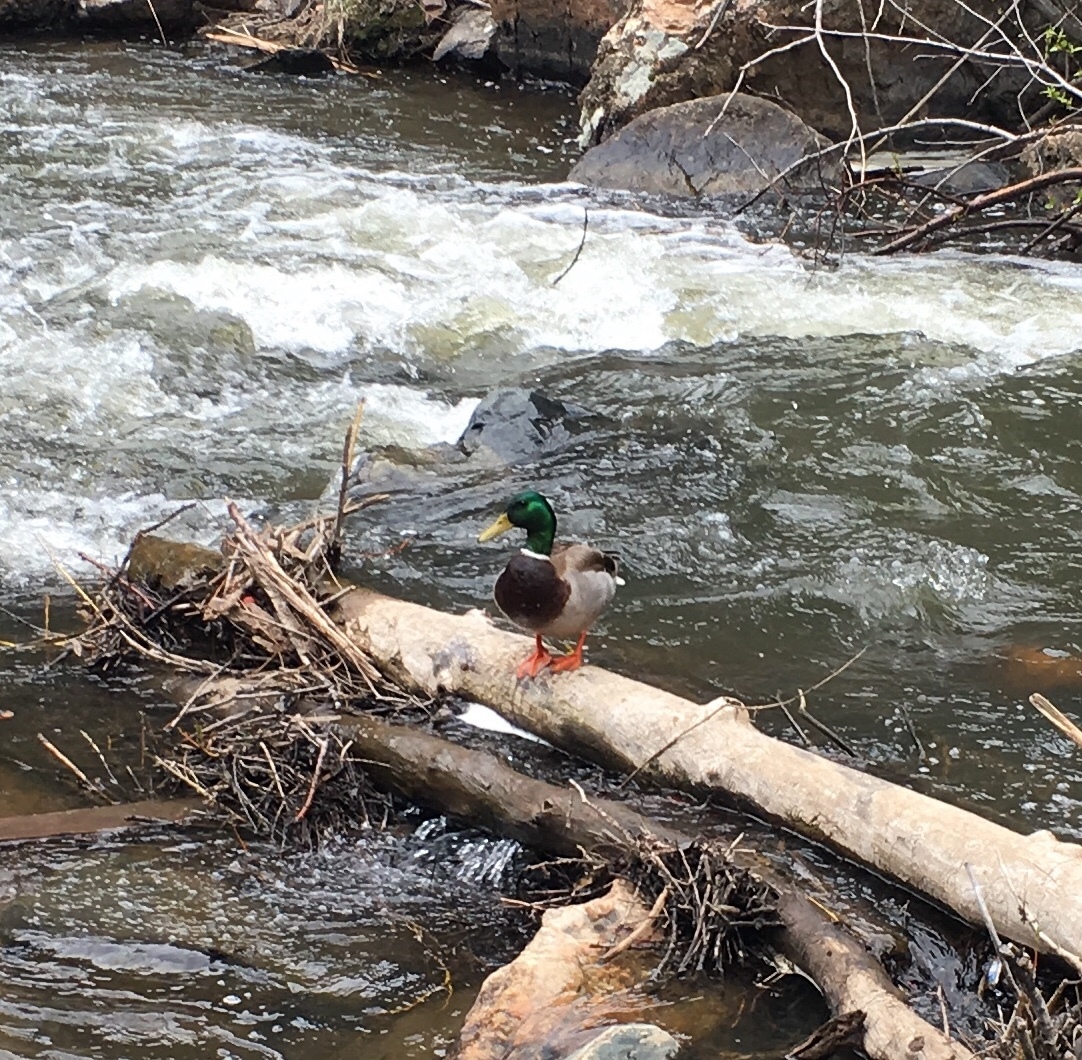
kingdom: Animalia
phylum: Chordata
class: Aves
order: Anseriformes
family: Anatidae
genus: Anas
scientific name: Anas platyrhynchos
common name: Mallard
